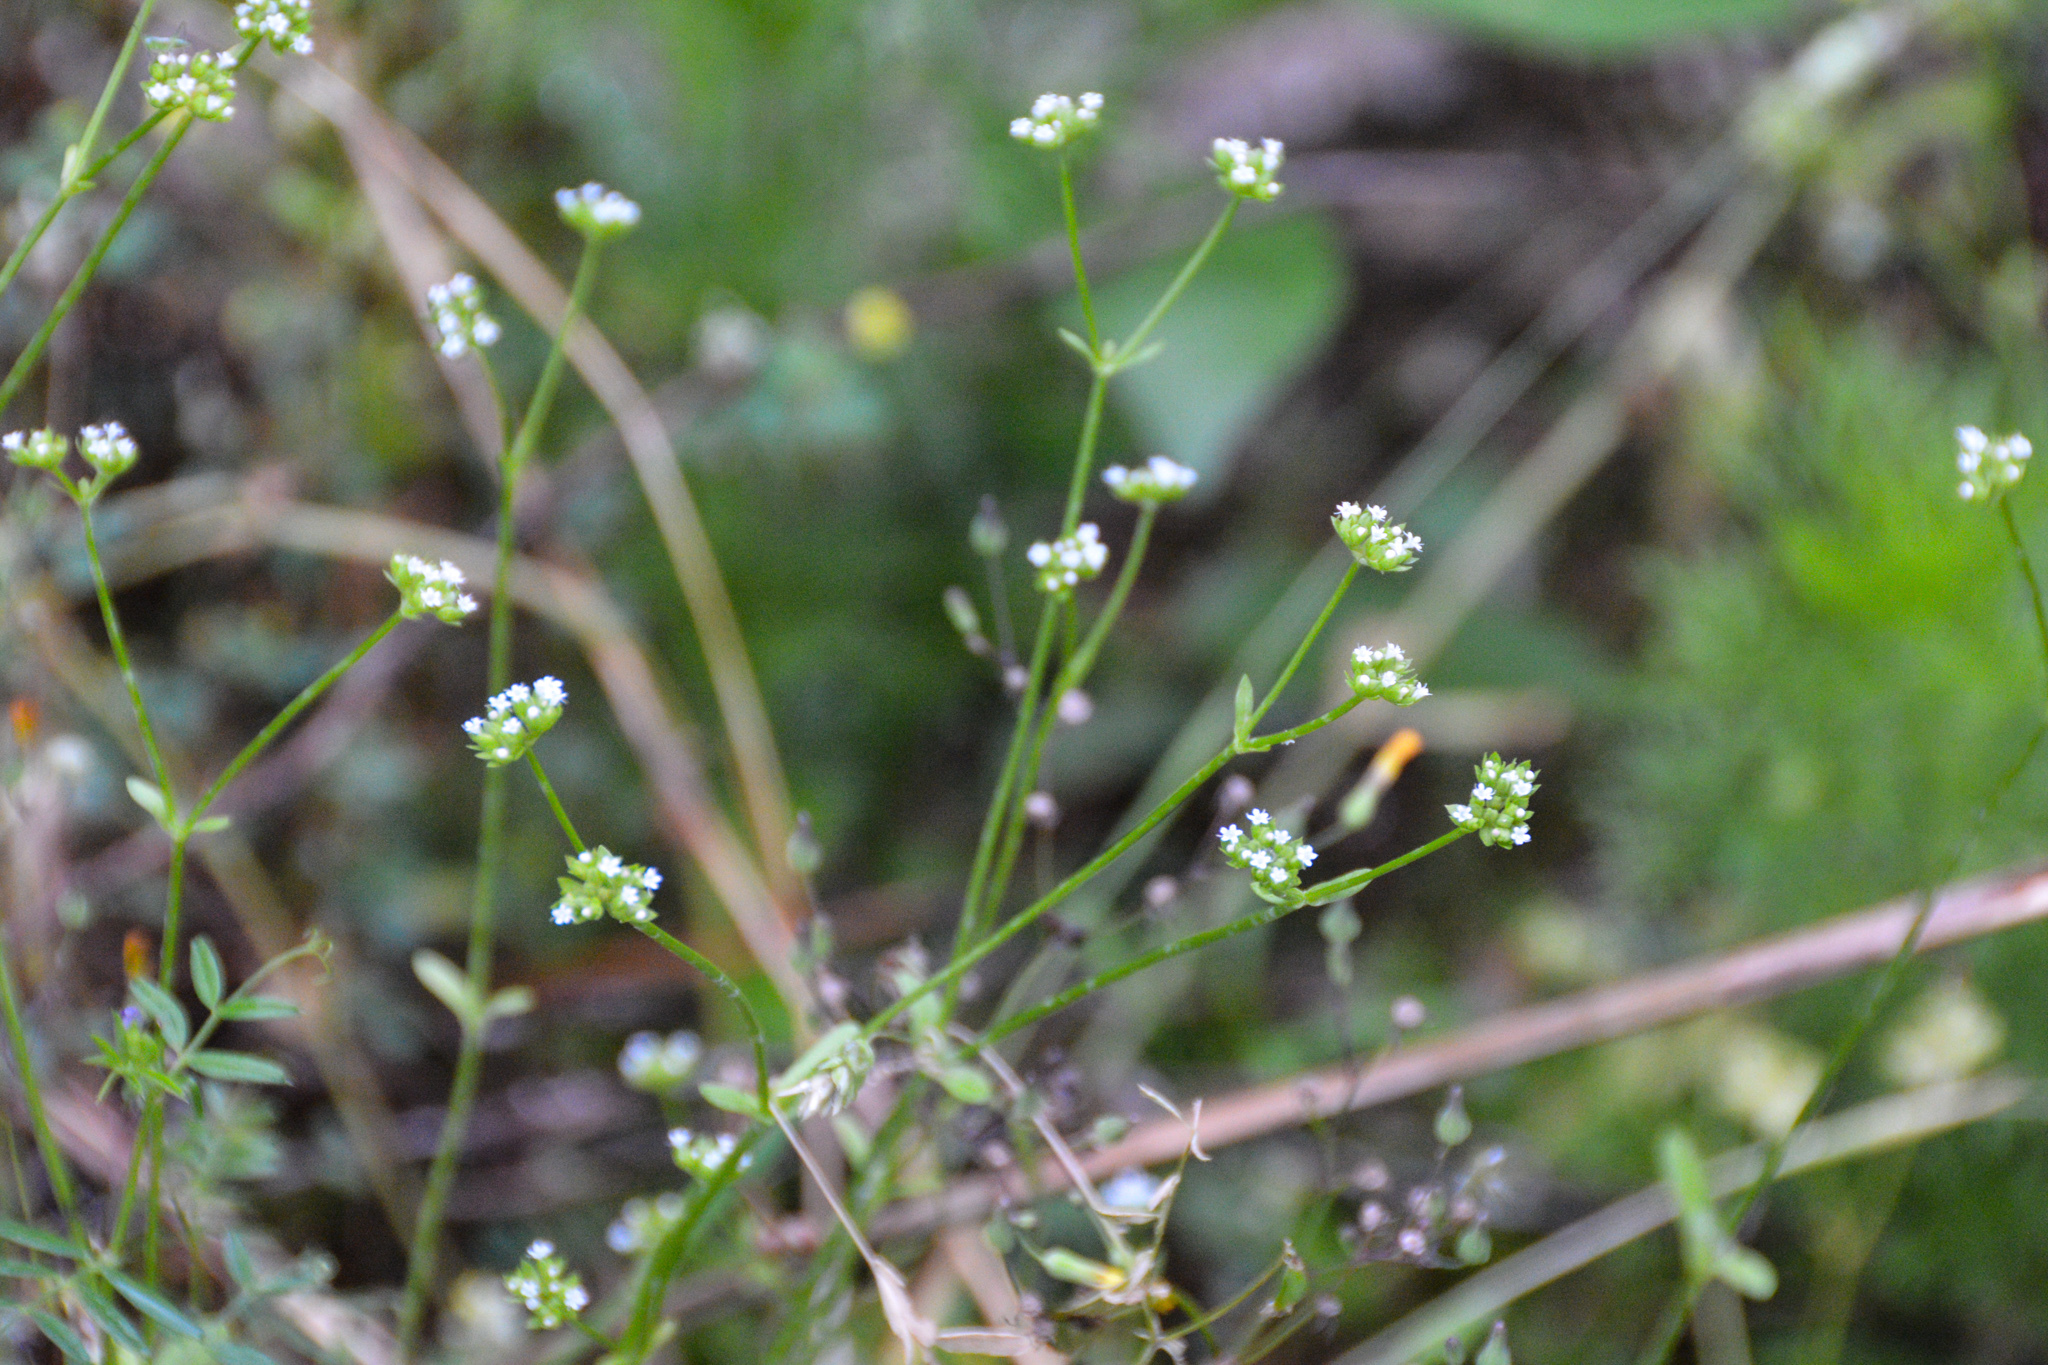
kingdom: Plantae
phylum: Tracheophyta
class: Magnoliopsida
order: Dipsacales
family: Caprifoliaceae
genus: Valerianella
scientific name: Valerianella radiata
